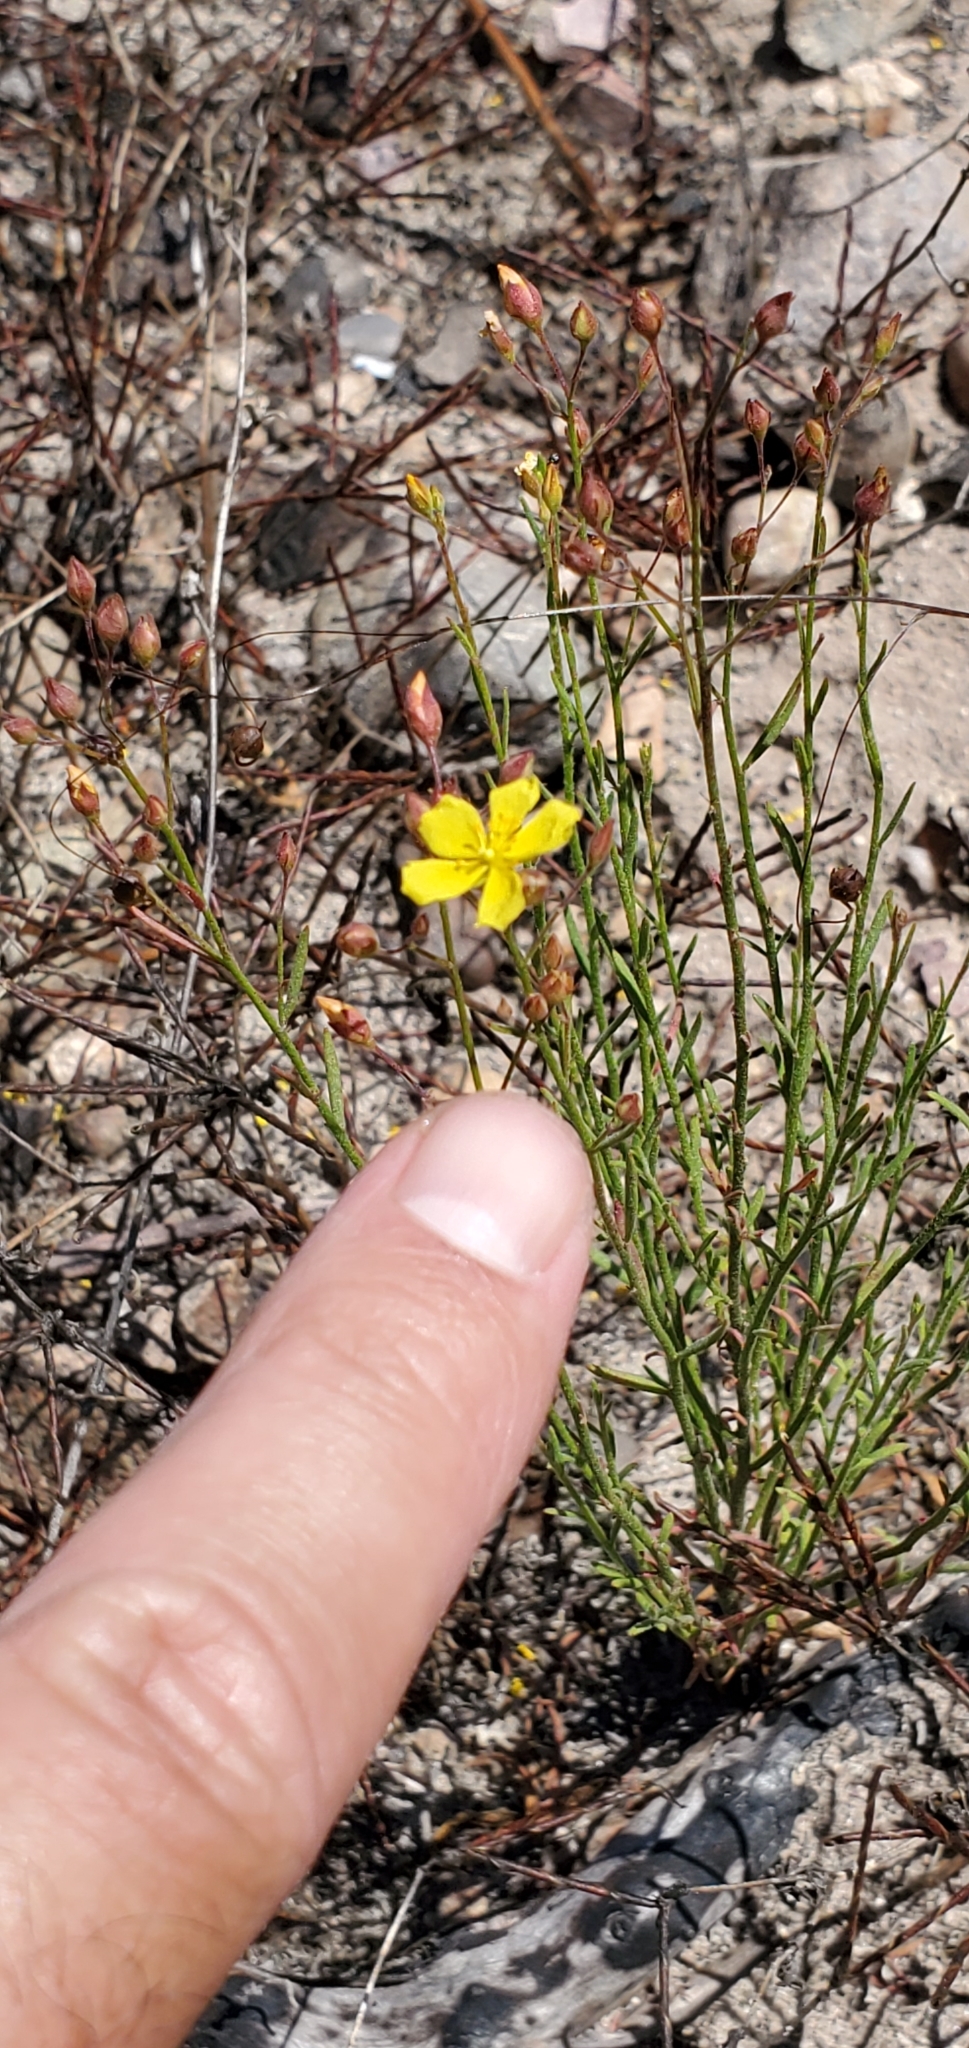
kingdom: Plantae
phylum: Tracheophyta
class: Magnoliopsida
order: Malvales
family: Cistaceae
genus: Crocanthemum
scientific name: Crocanthemum scoparium
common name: Broom-rose
